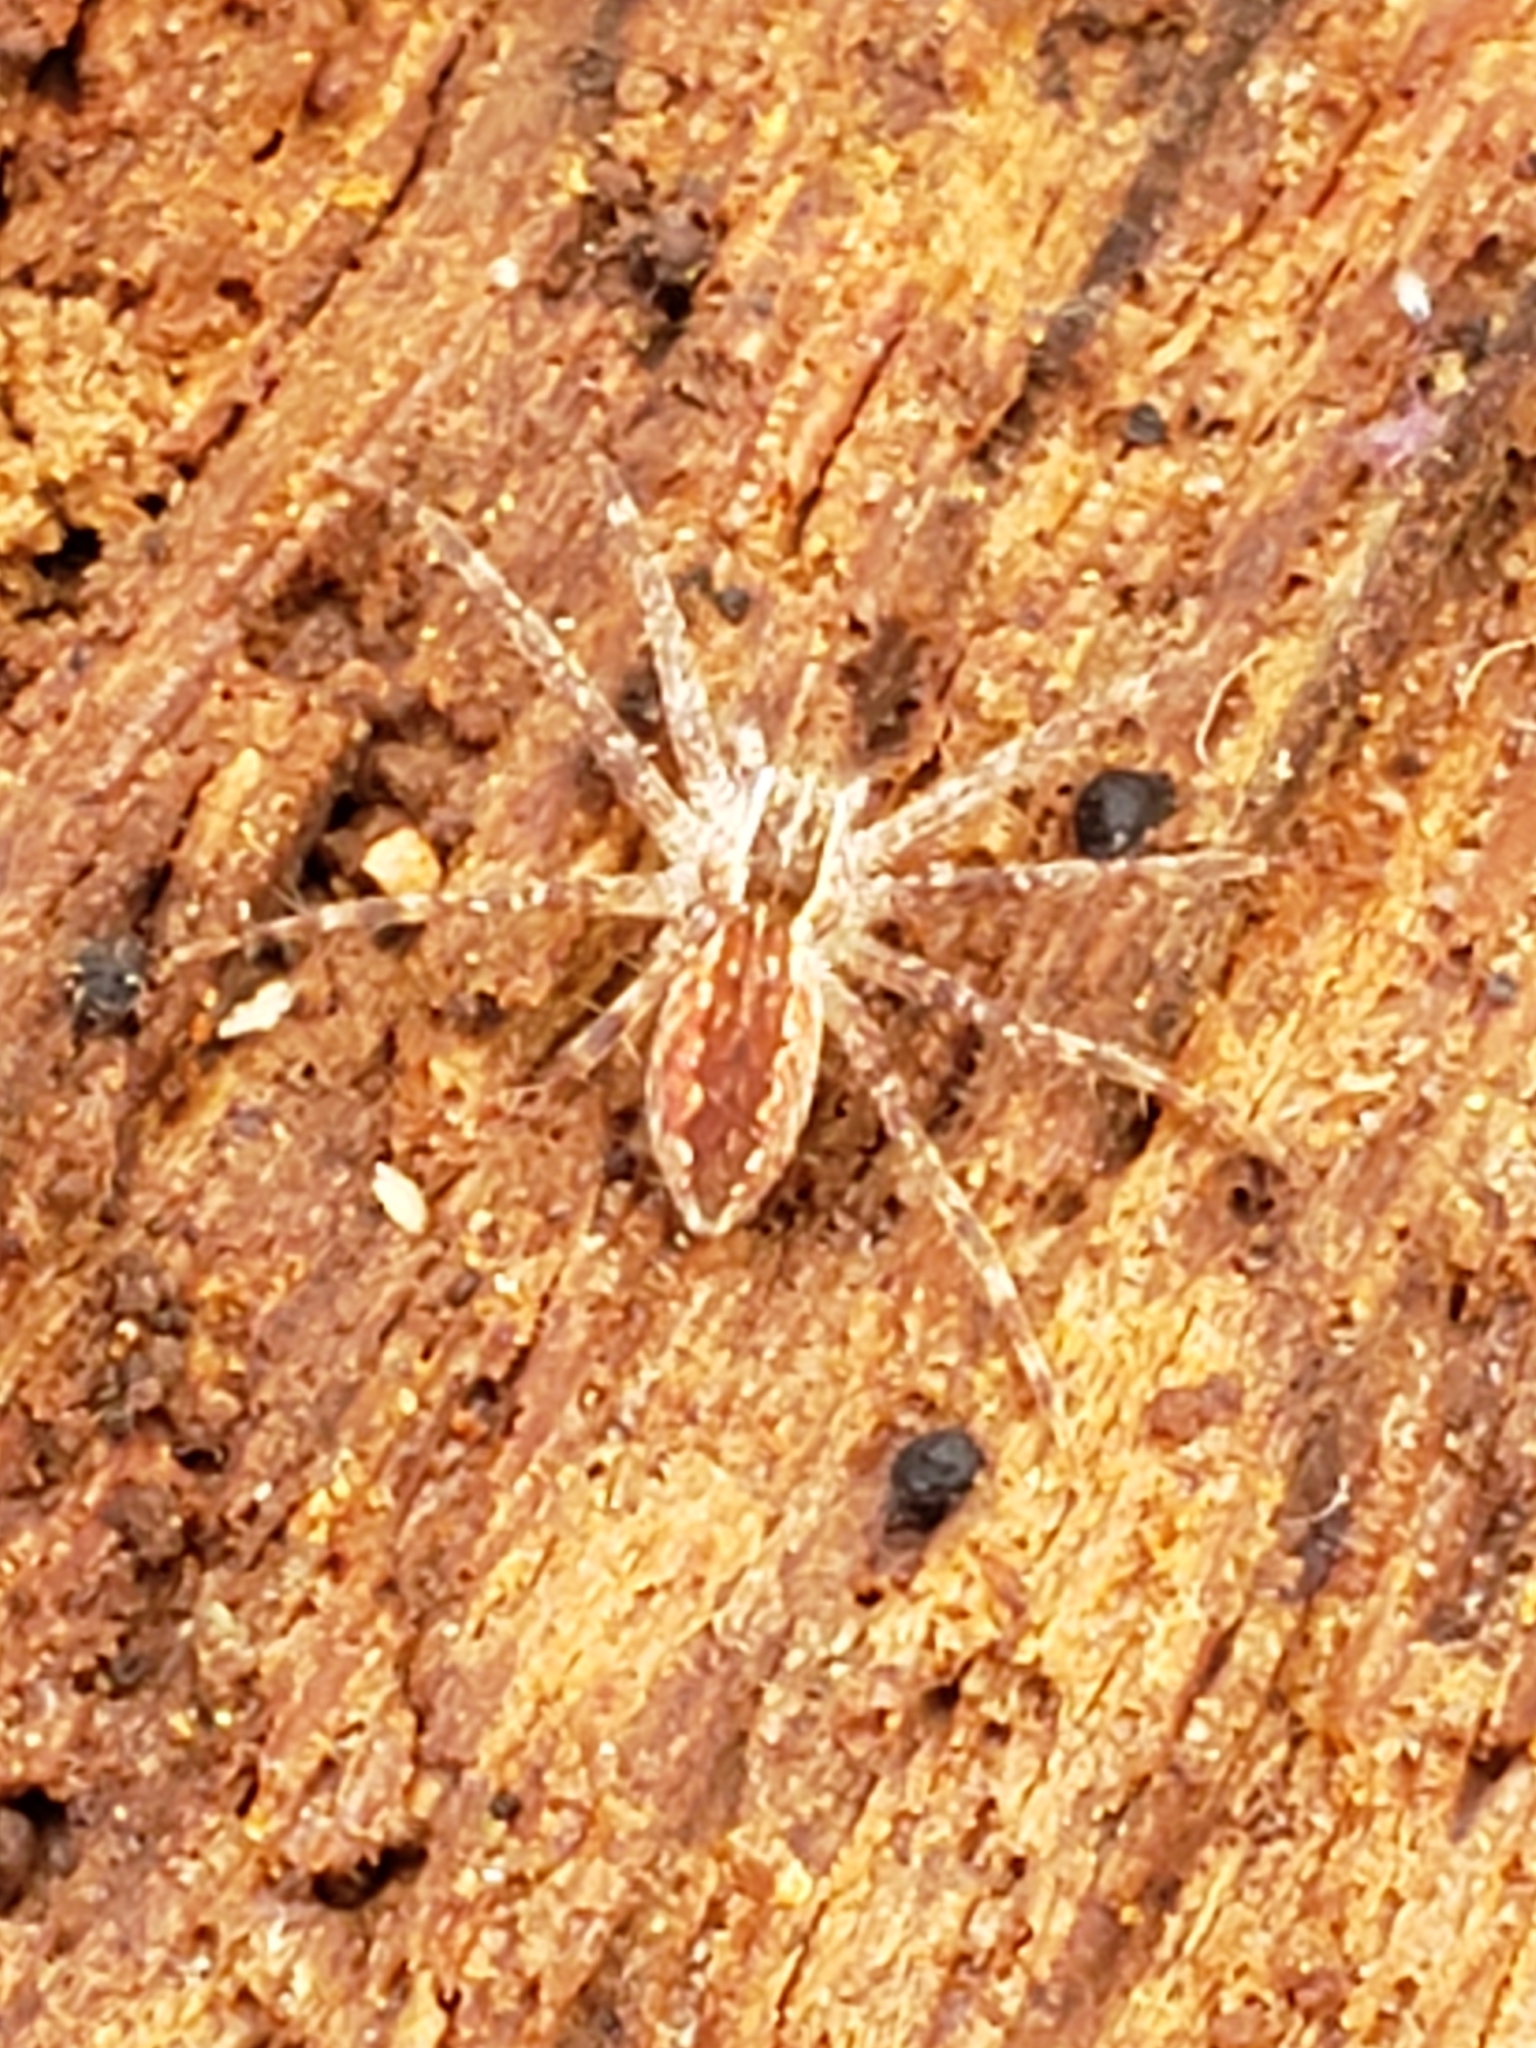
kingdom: Animalia
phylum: Arthropoda
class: Arachnida
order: Araneae
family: Pisauridae
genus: Pisaurina
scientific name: Pisaurina mira
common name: American nursery web spider
